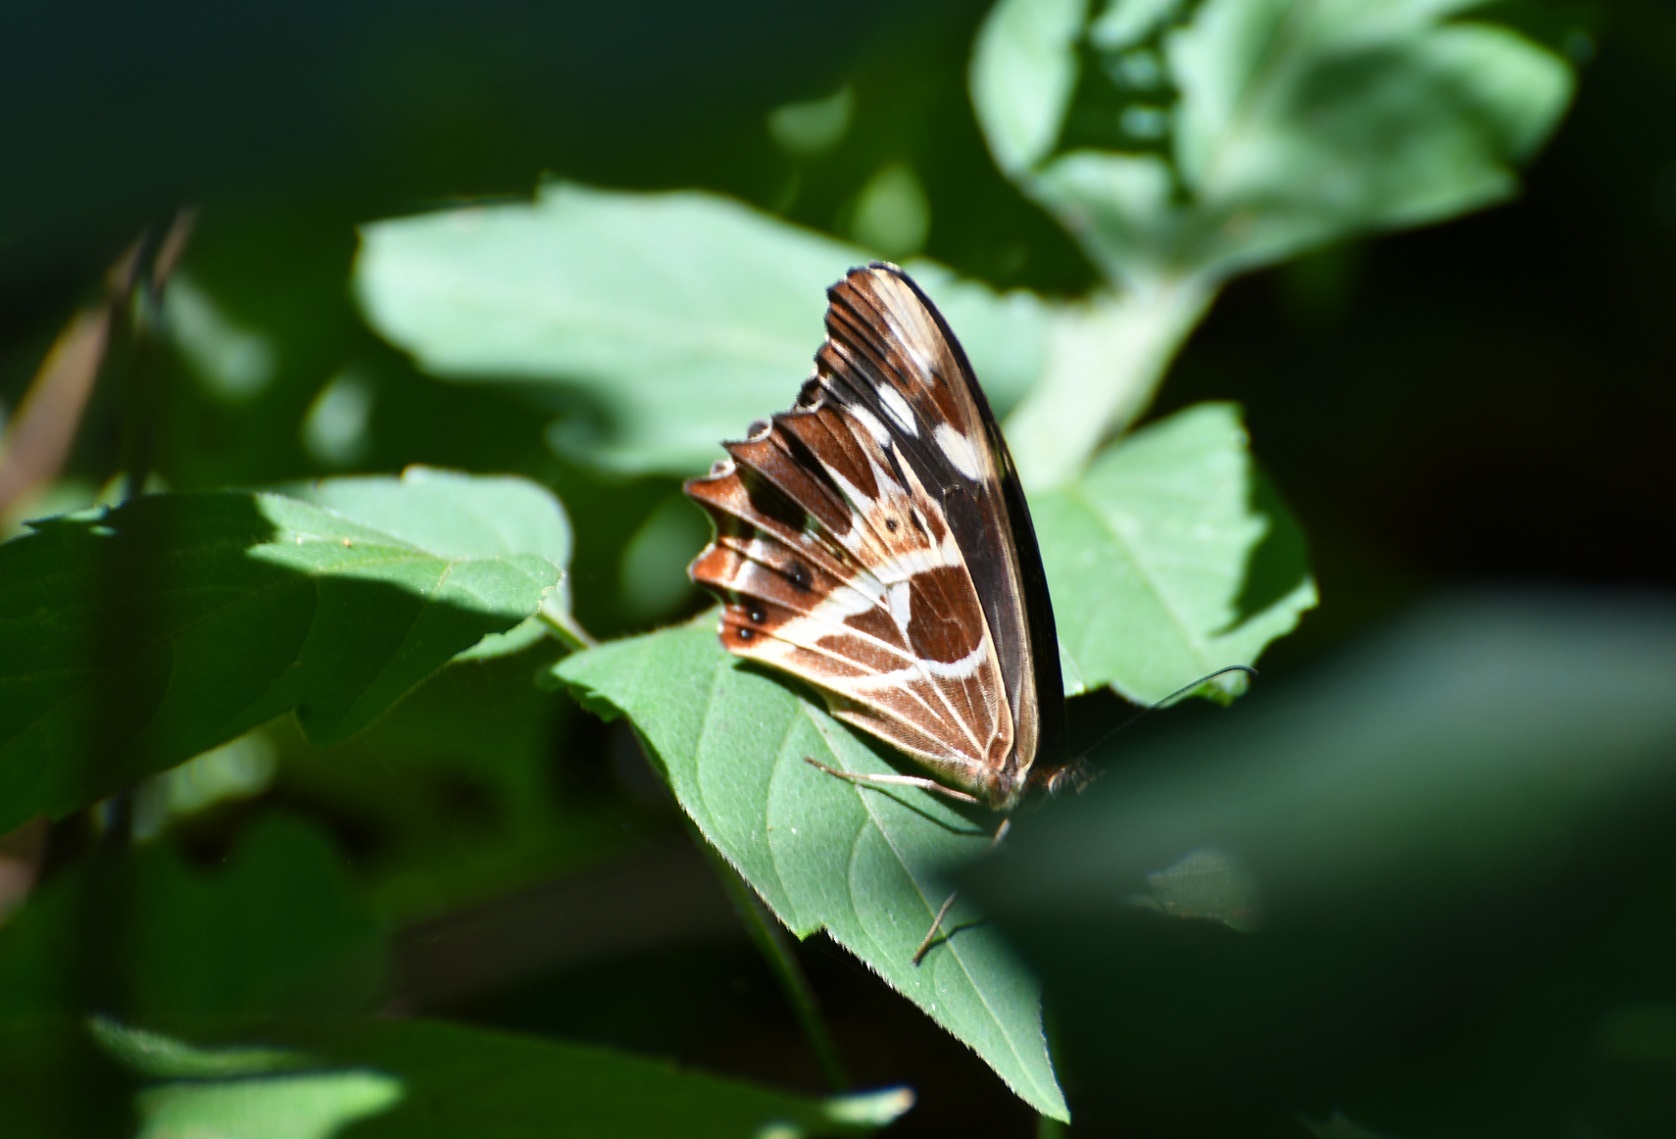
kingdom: Animalia
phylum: Arthropoda
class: Insecta
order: Lepidoptera
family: Nymphalidae
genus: Oxeoschistus
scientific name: Oxeoschistus tauropolis
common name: Starred oxeo
